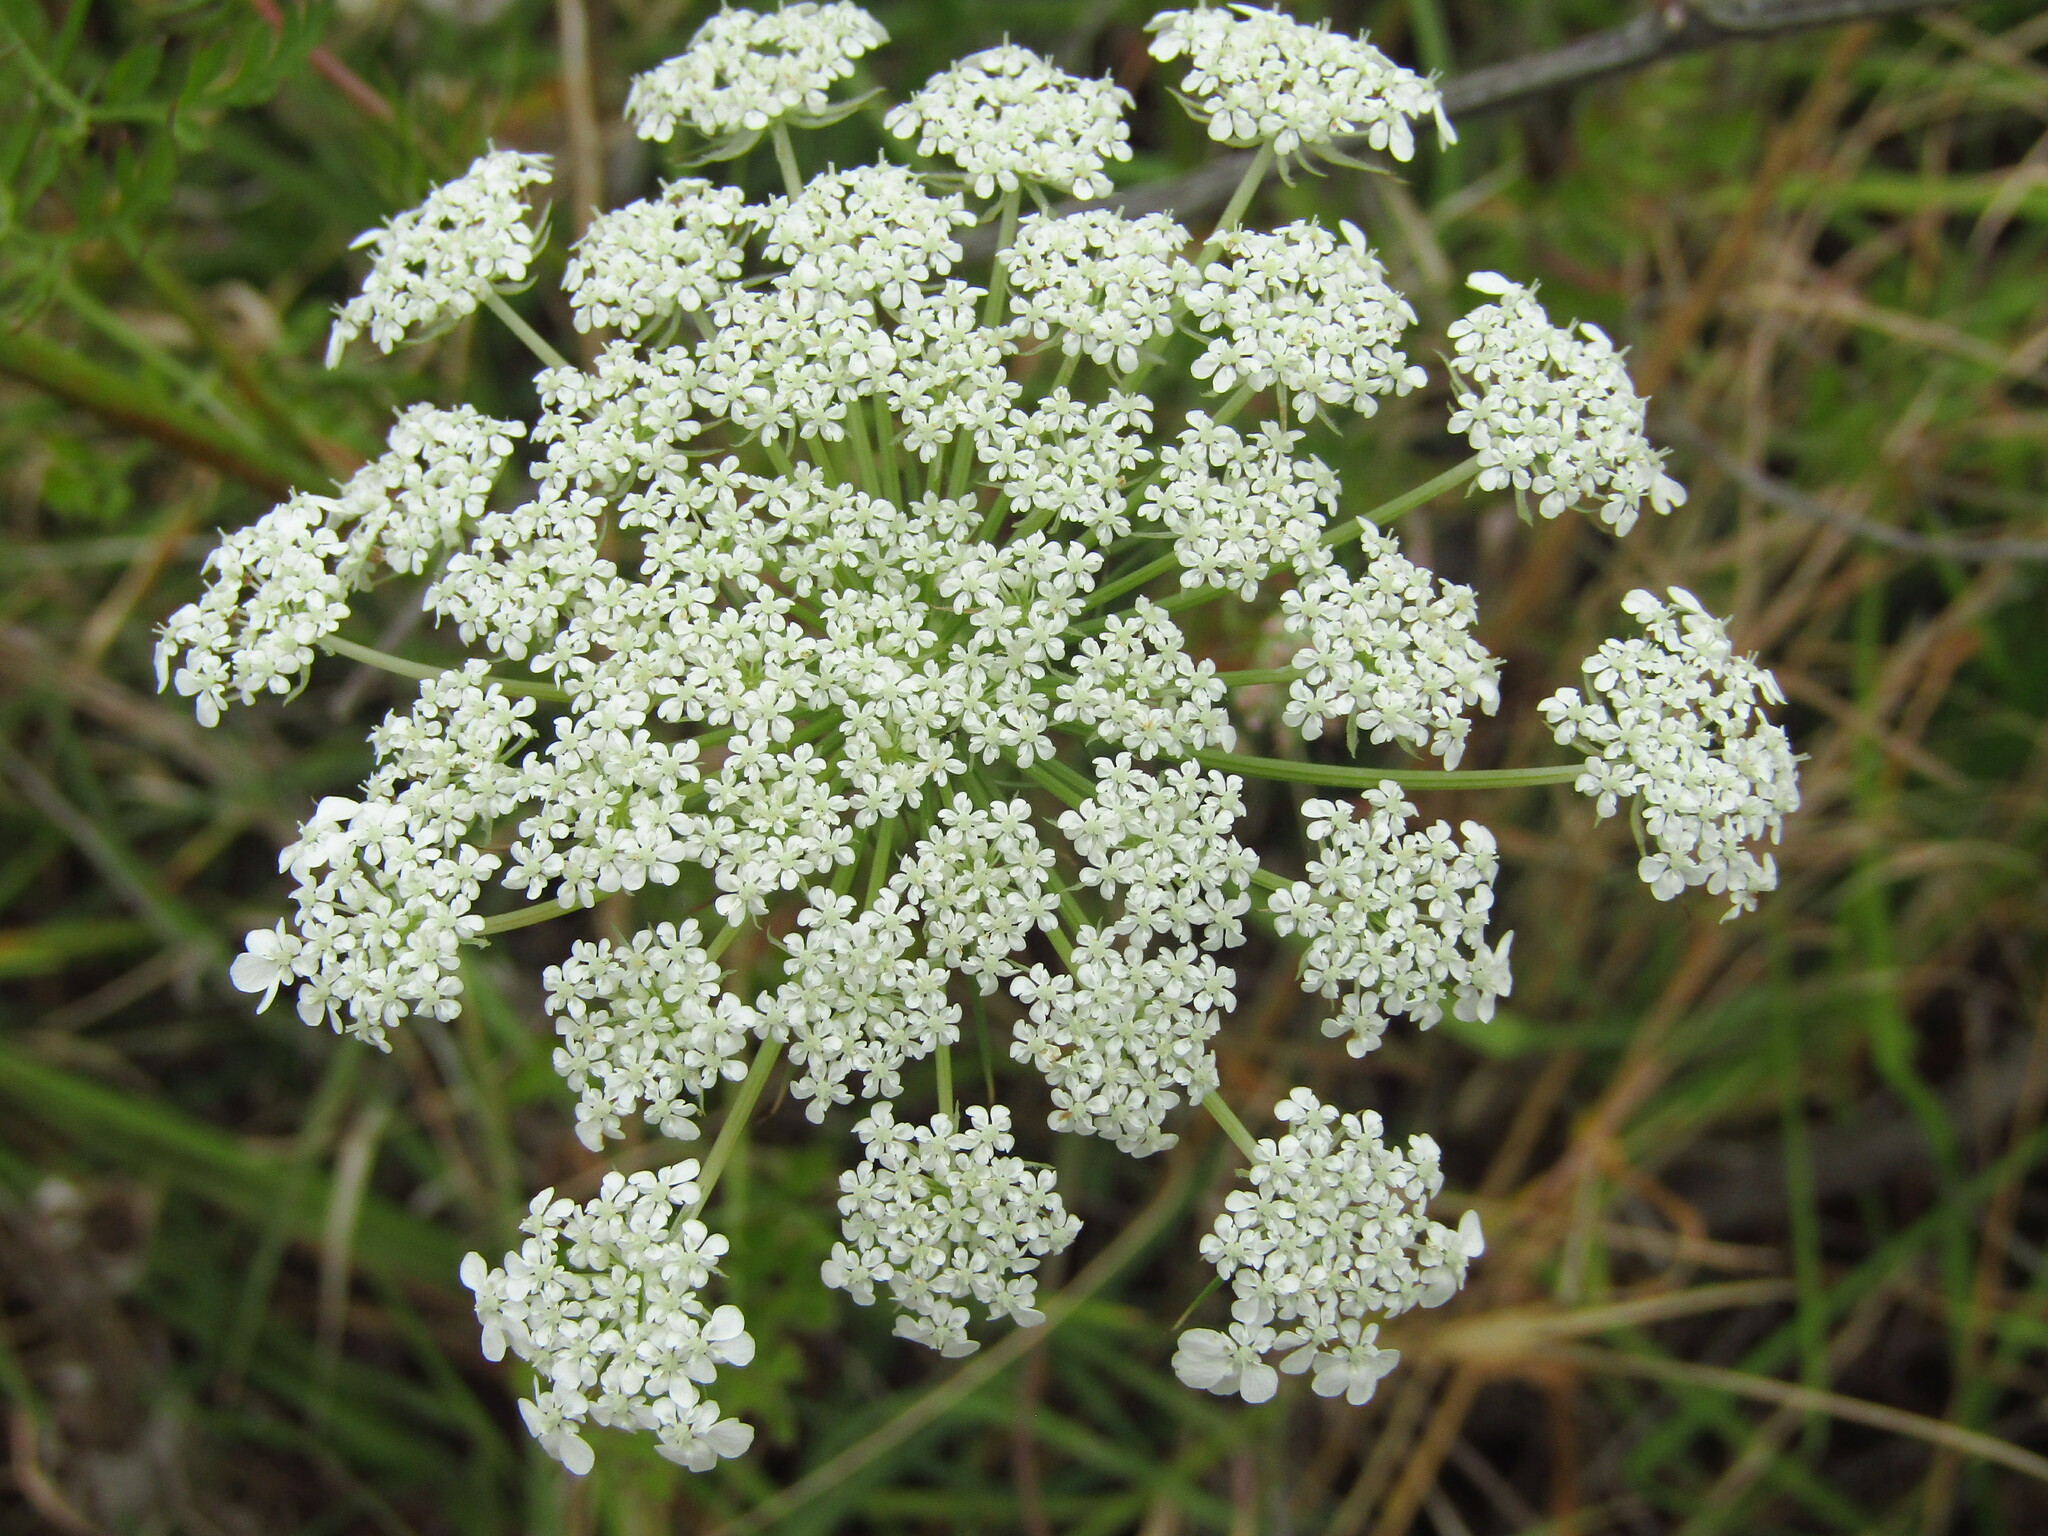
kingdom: Plantae
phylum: Tracheophyta
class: Magnoliopsida
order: Apiales
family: Apiaceae
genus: Daucus
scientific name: Daucus carota
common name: Wild carrot
